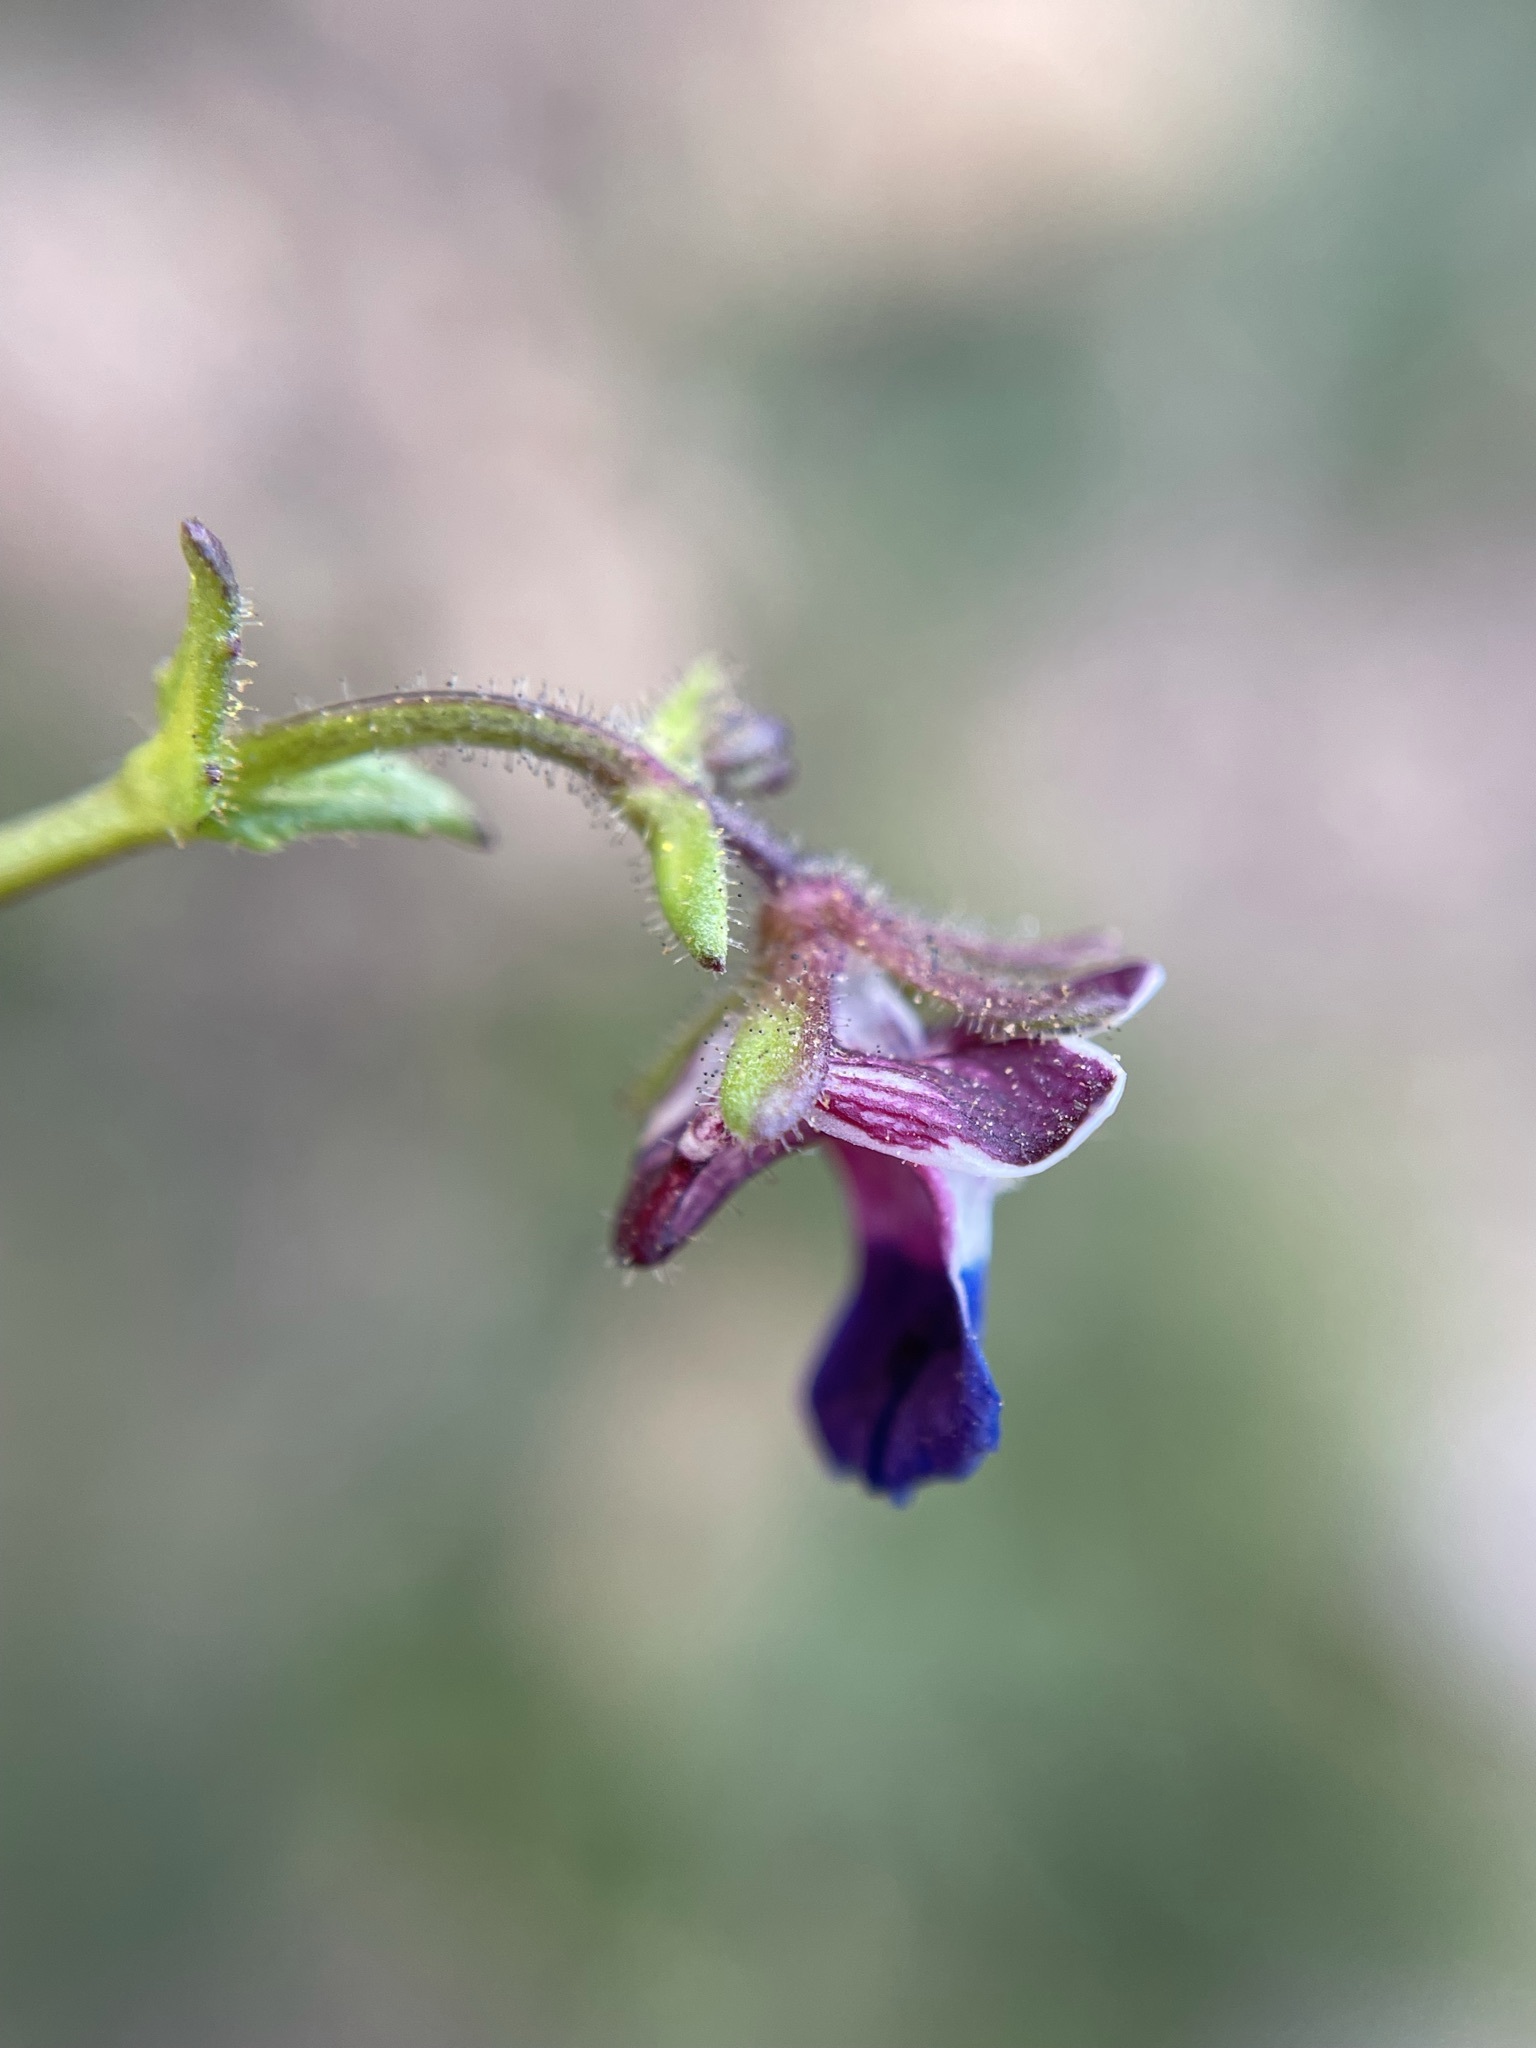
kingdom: Plantae
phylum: Tracheophyta
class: Magnoliopsida
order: Lamiales
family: Scrophulariaceae
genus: Nemesia
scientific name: Nemesia barbata
